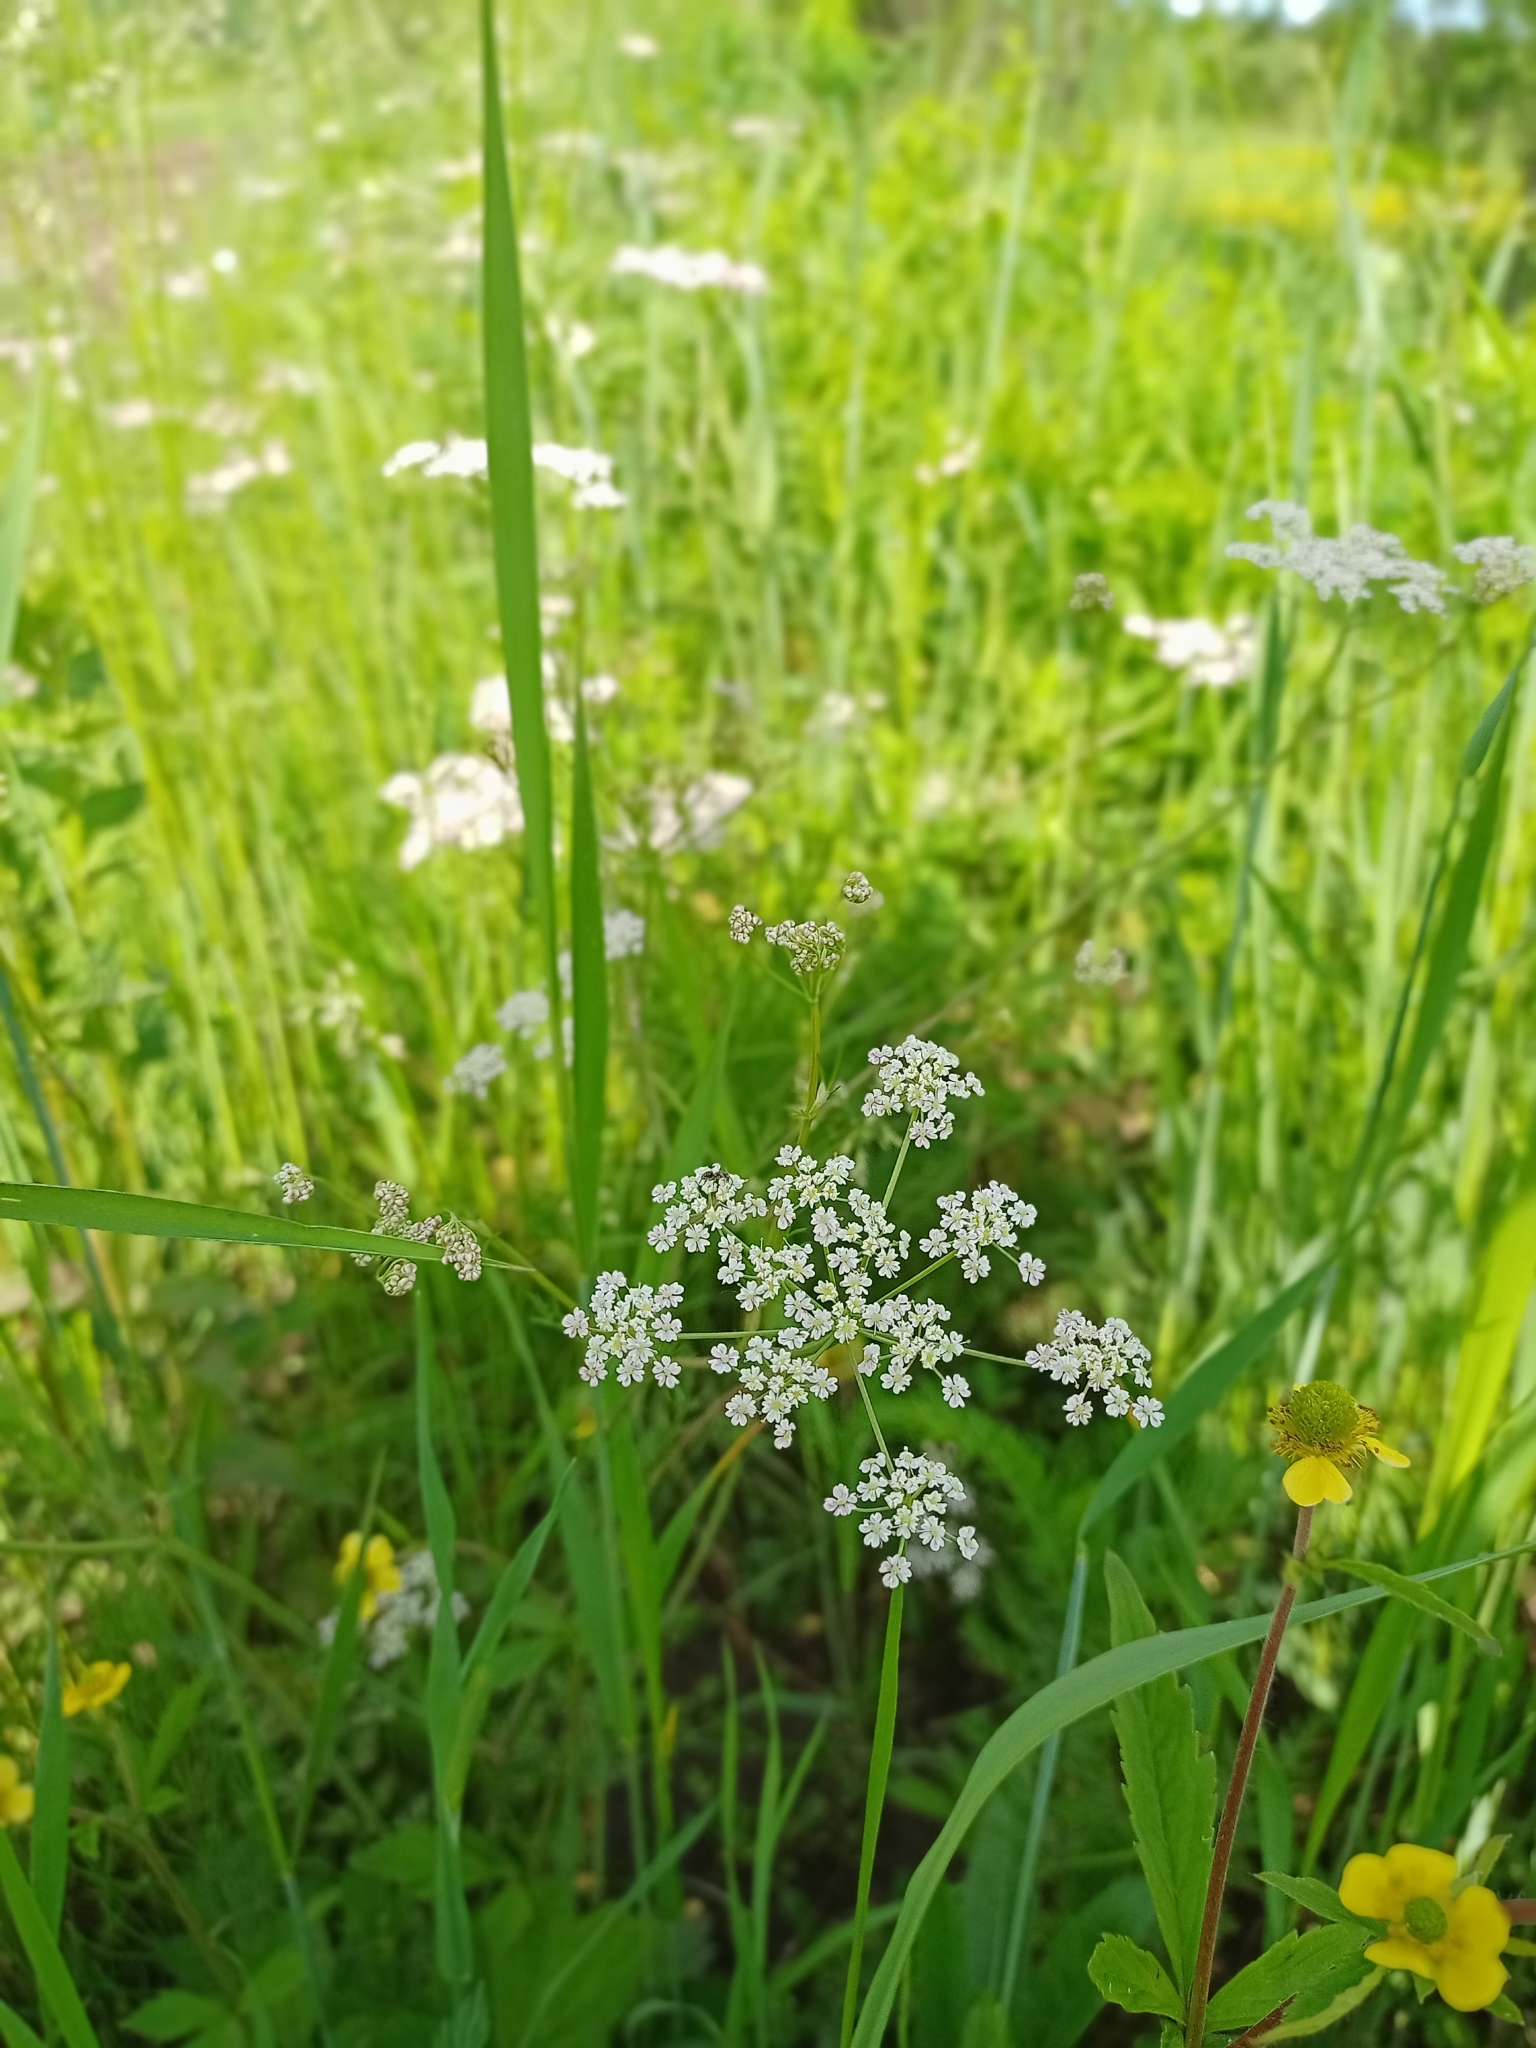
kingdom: Plantae
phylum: Tracheophyta
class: Magnoliopsida
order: Apiales
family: Apiaceae
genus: Carum
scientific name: Carum carvi
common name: Caraway
